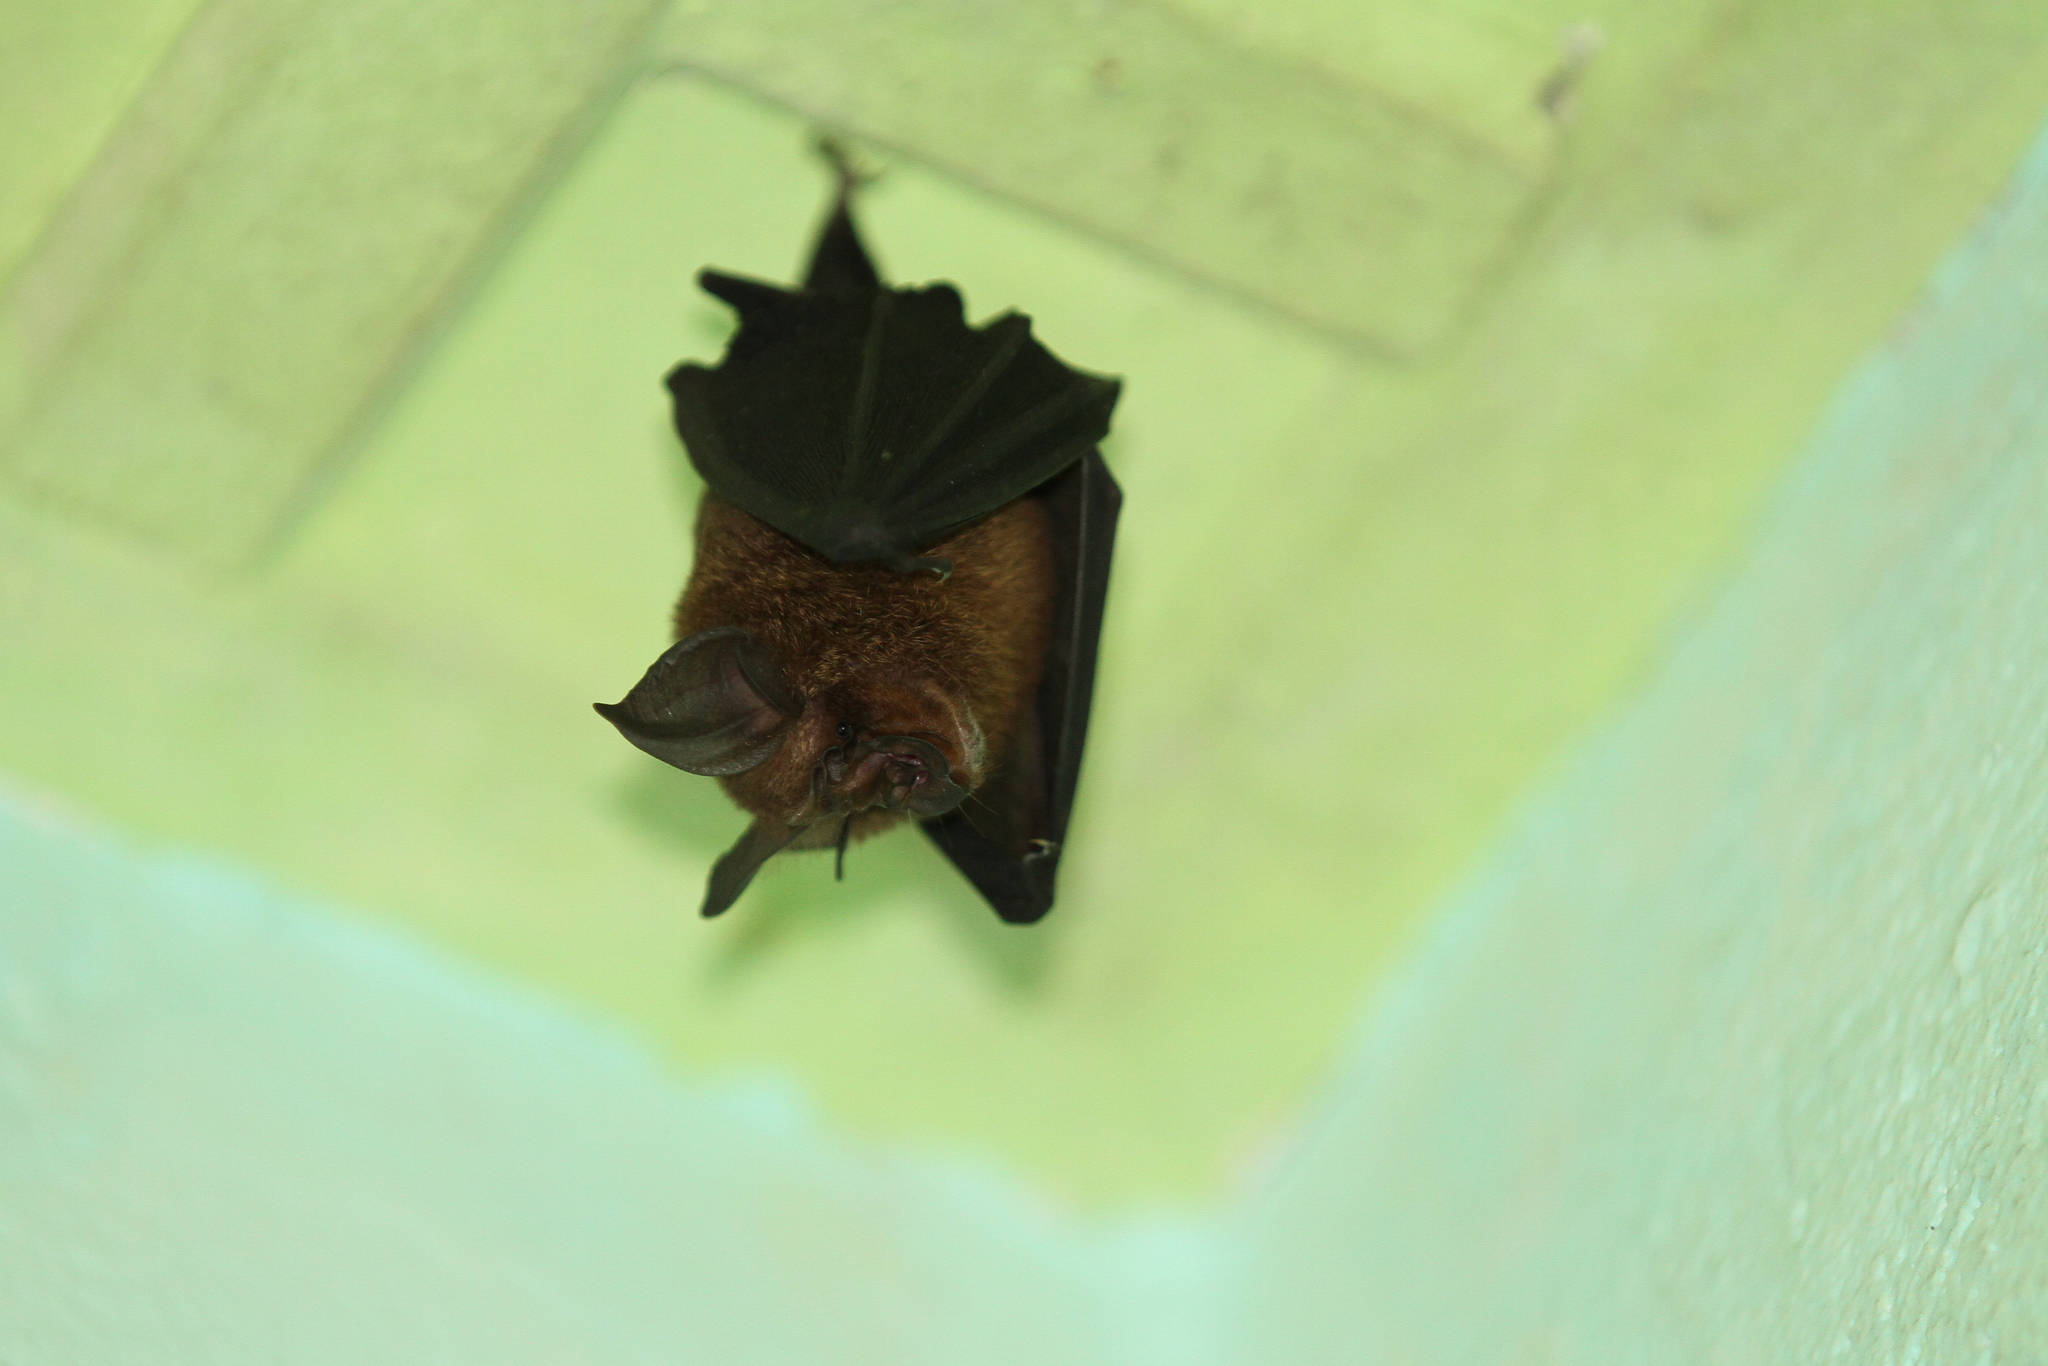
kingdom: Animalia
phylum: Chordata
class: Mammalia
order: Chiroptera
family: Rhinolophidae
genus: Rhinolophus
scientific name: Rhinolophus
